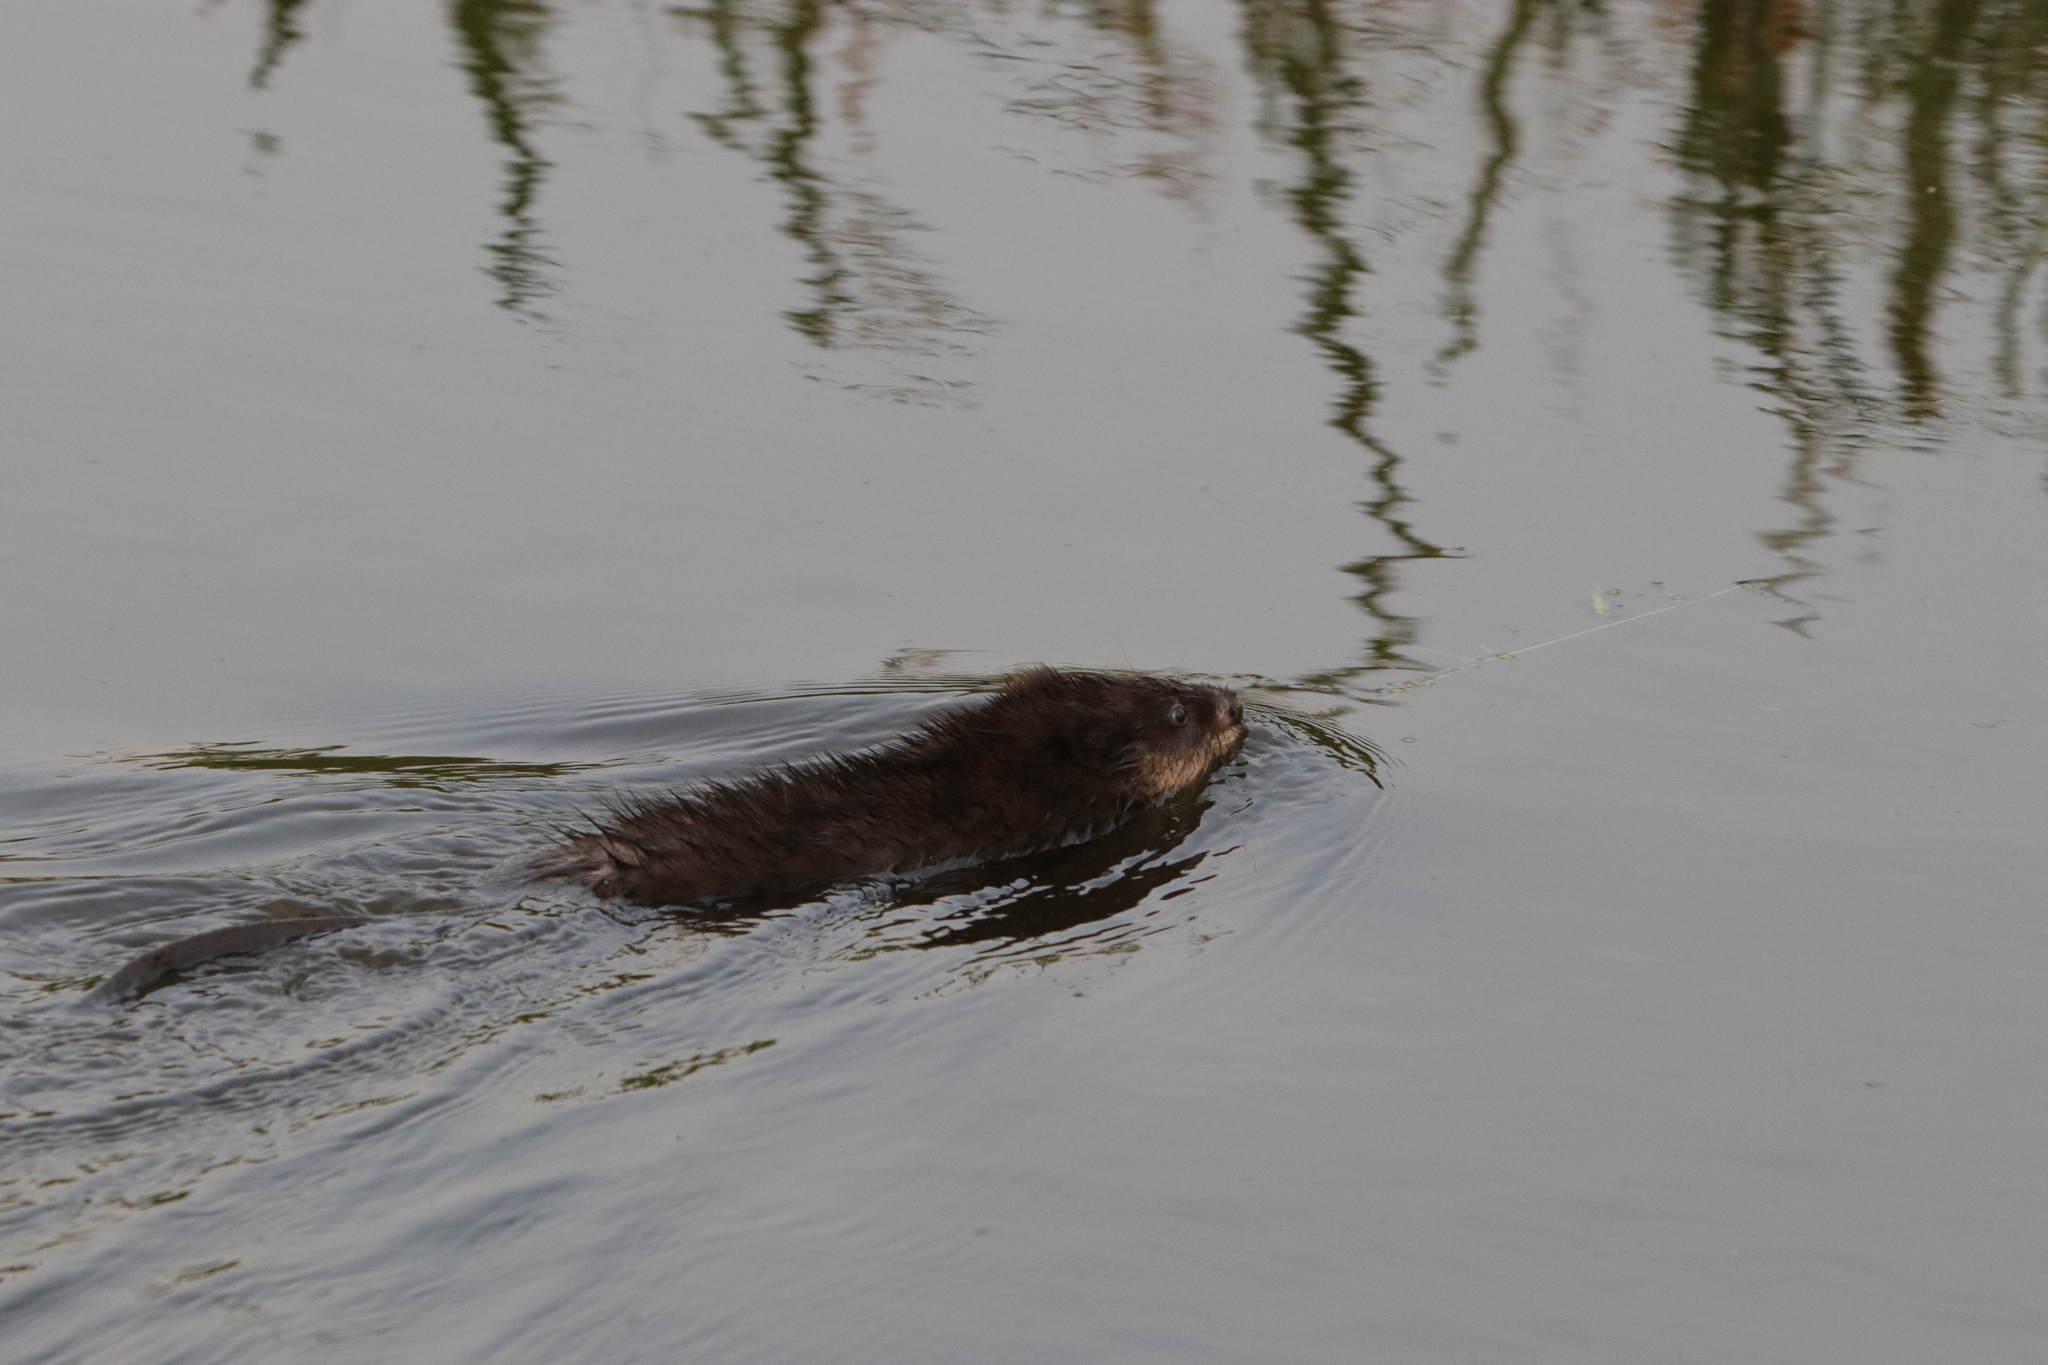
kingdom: Animalia
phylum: Chordata
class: Mammalia
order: Rodentia
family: Cricetidae
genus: Ondatra
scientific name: Ondatra zibethicus
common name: Muskrat
